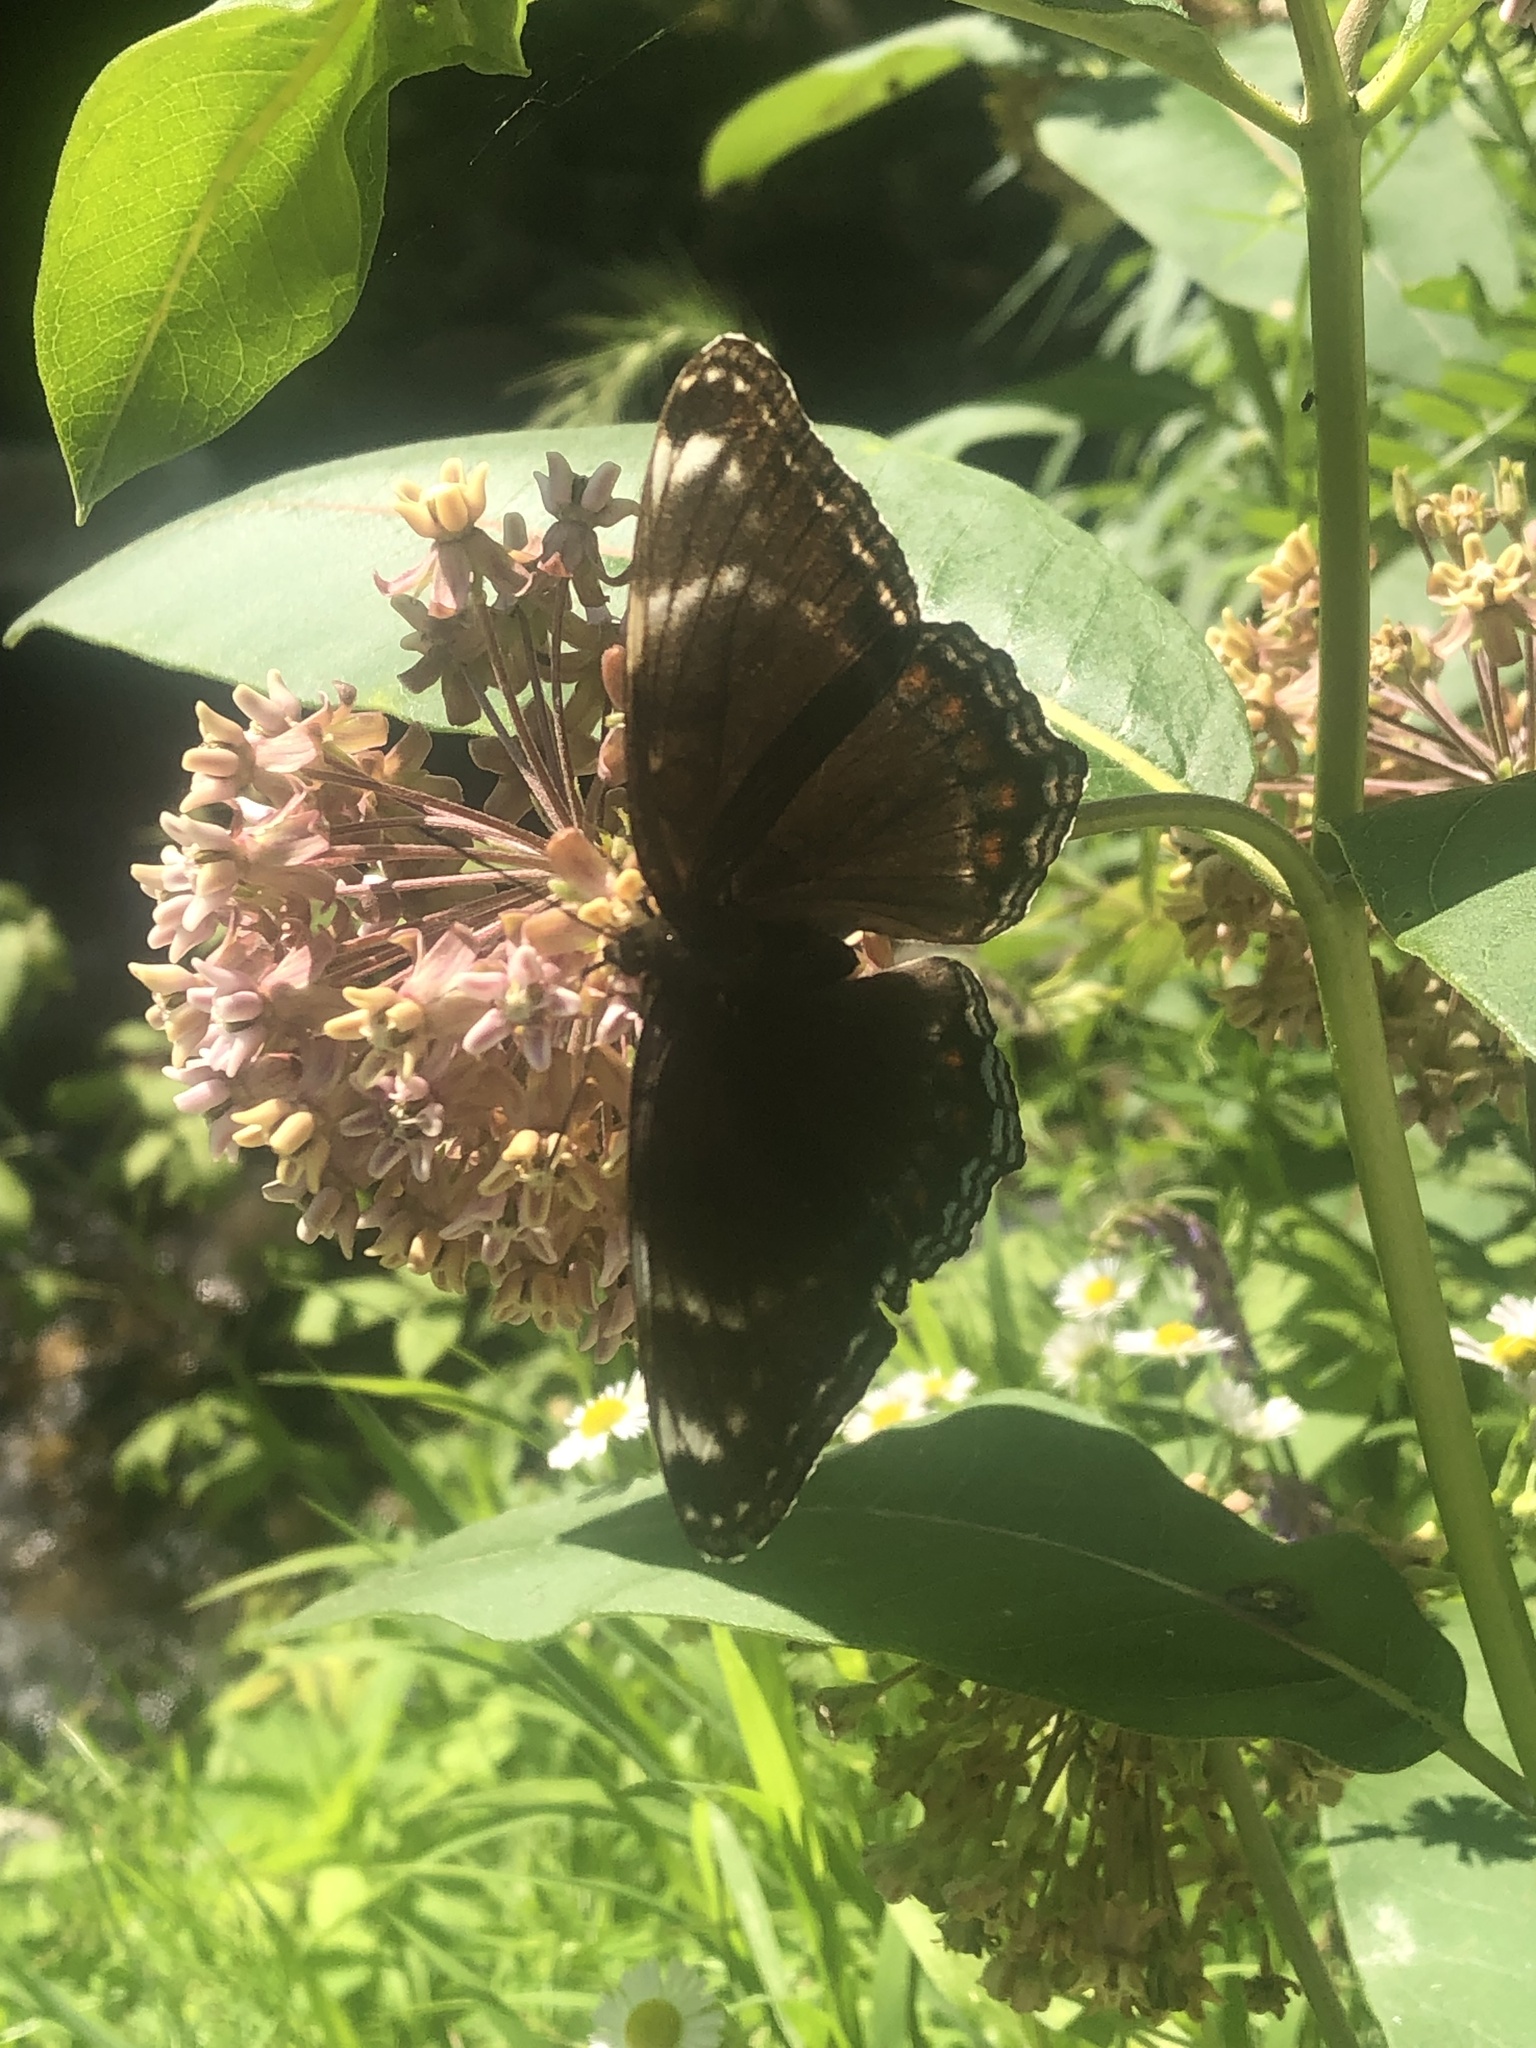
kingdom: Animalia
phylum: Arthropoda
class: Insecta
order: Lepidoptera
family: Nymphalidae
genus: Limenitis
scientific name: Limenitis arthemis
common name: Red-spotted admiral
